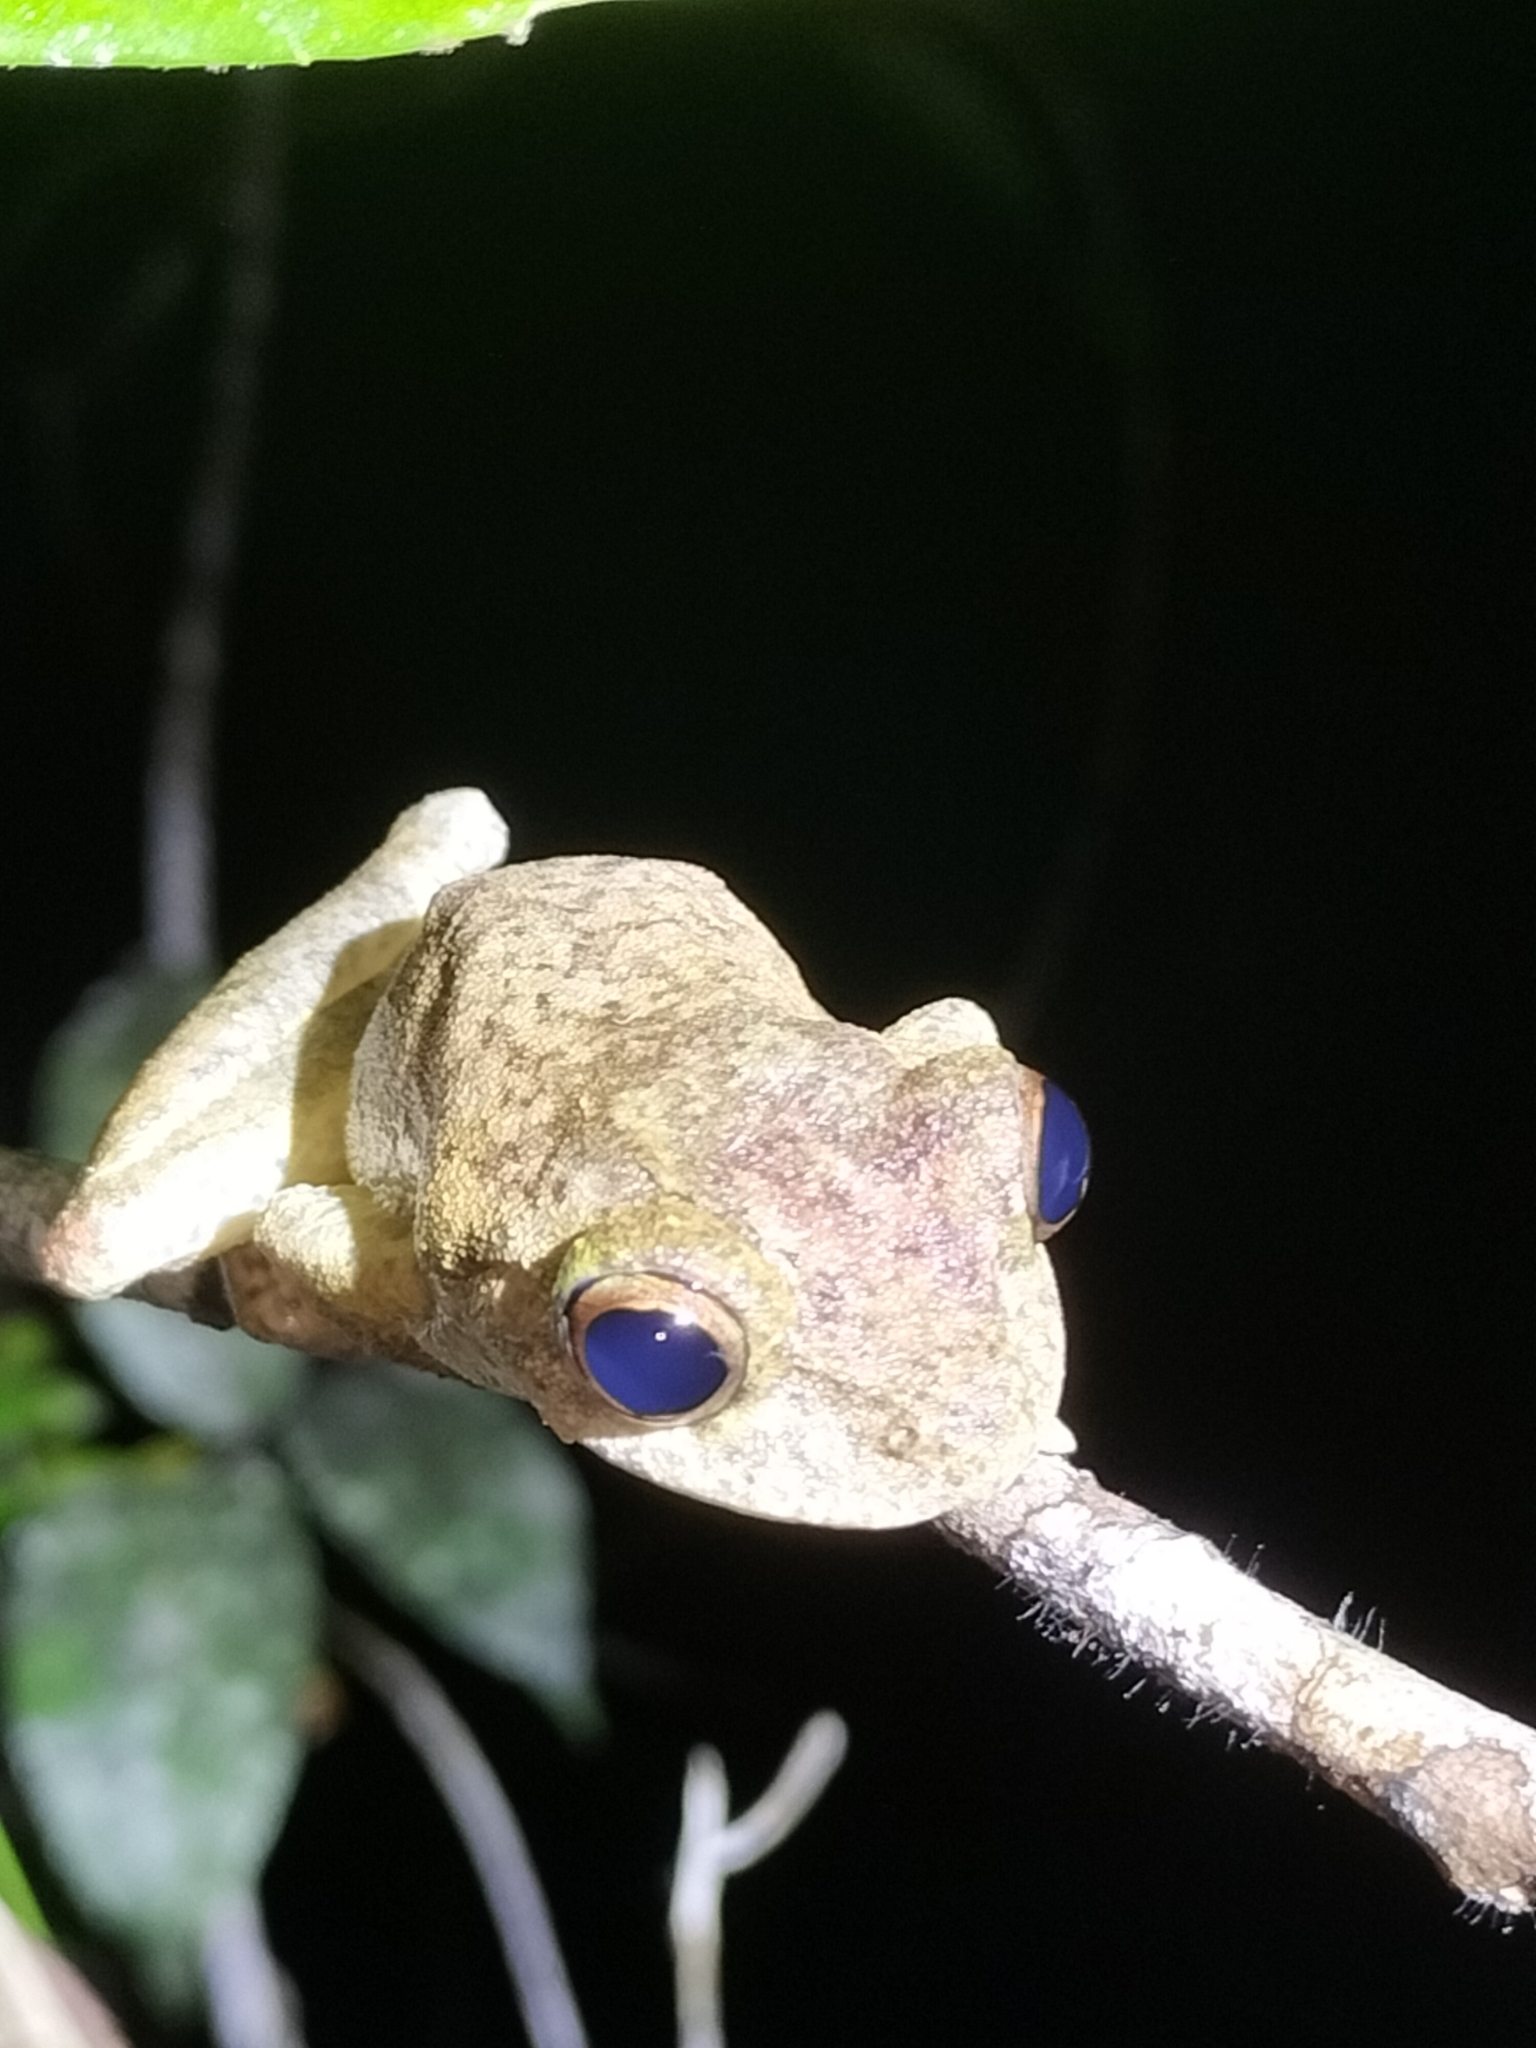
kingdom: Animalia
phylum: Chordata
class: Amphibia
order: Anura
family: Pelodryadidae
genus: Ranoidea
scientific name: Ranoidea serrata
